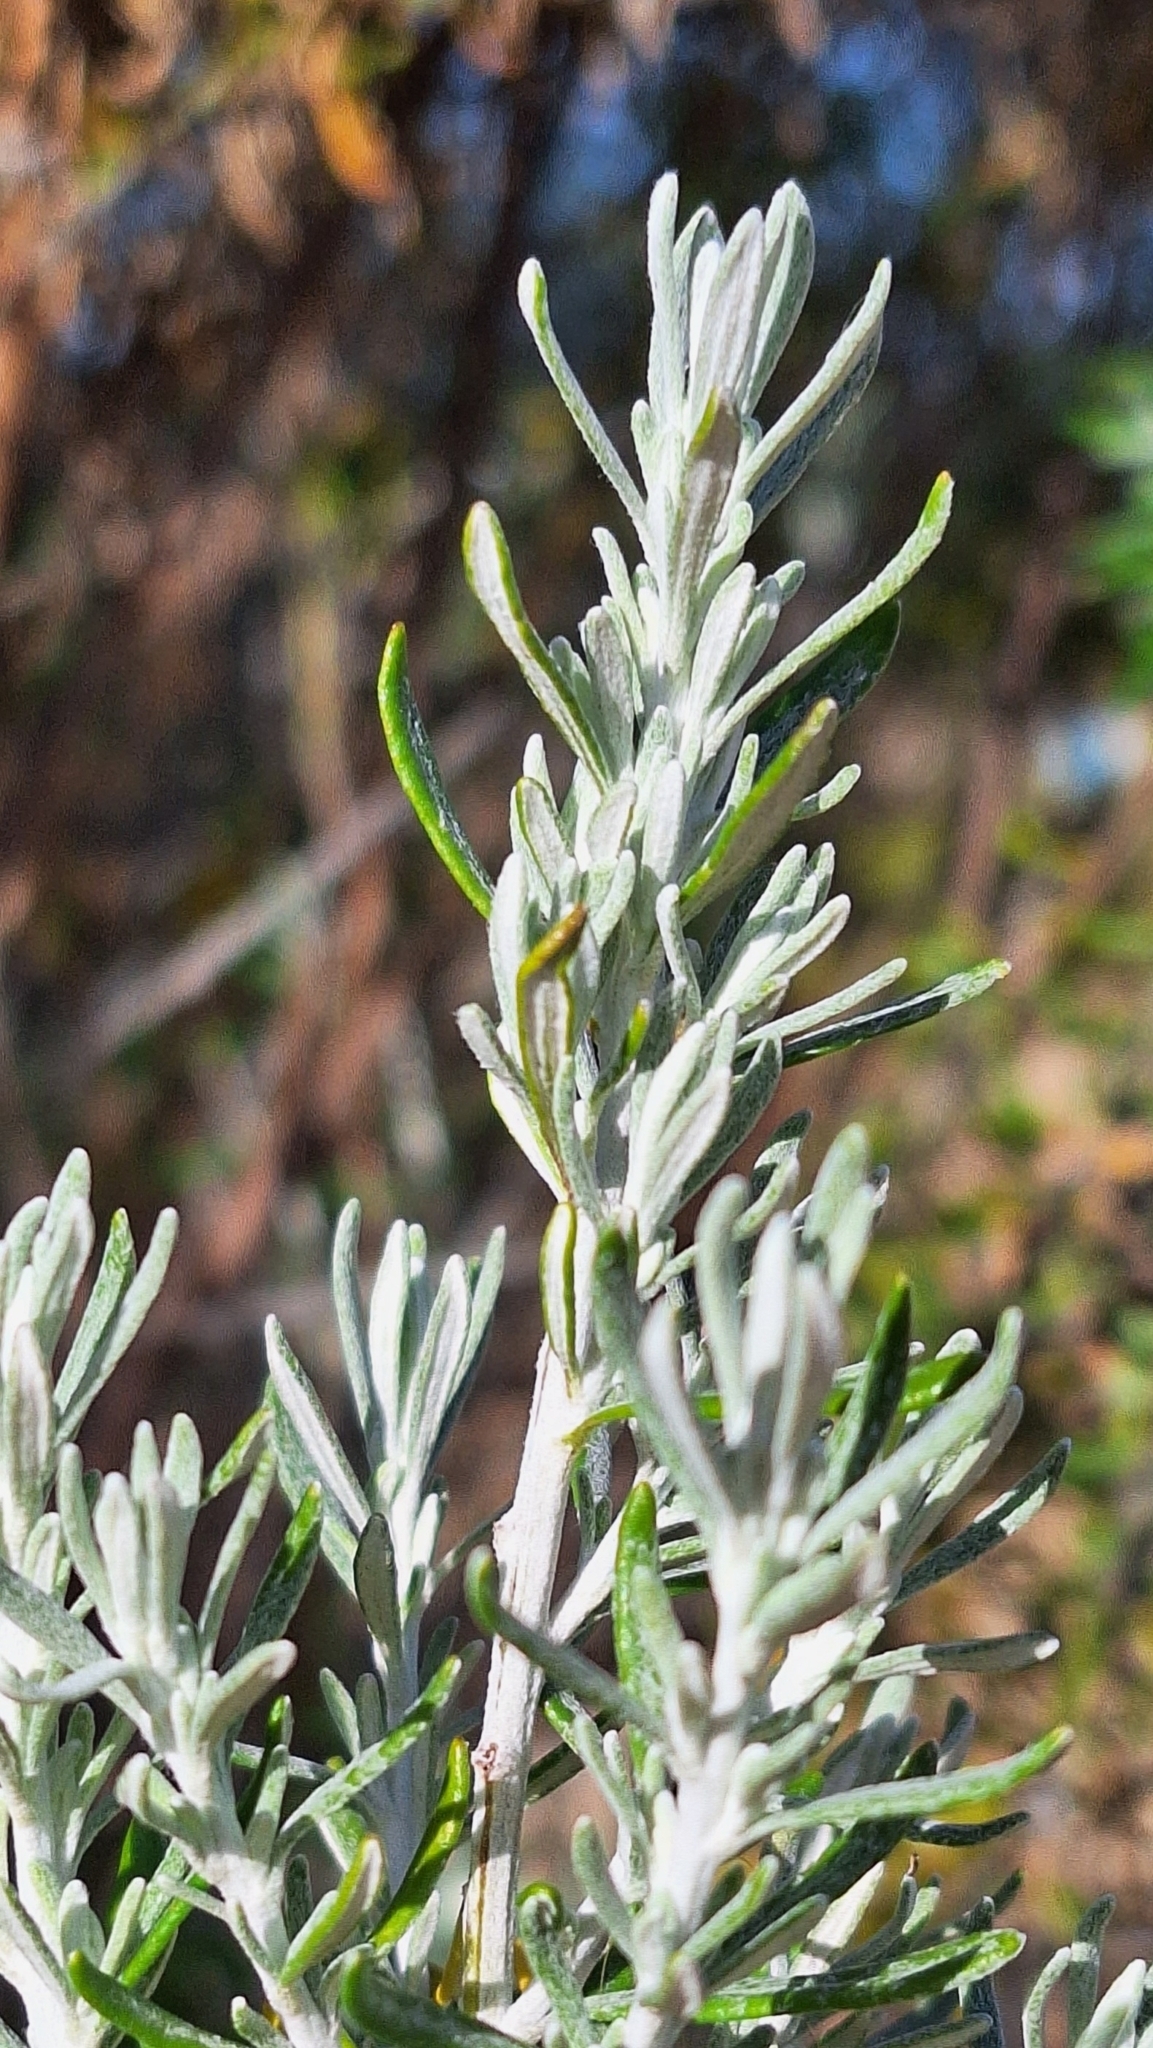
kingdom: Plantae
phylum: Tracheophyta
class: Magnoliopsida
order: Asterales
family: Asteraceae
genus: Olearia
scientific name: Olearia axillaris
